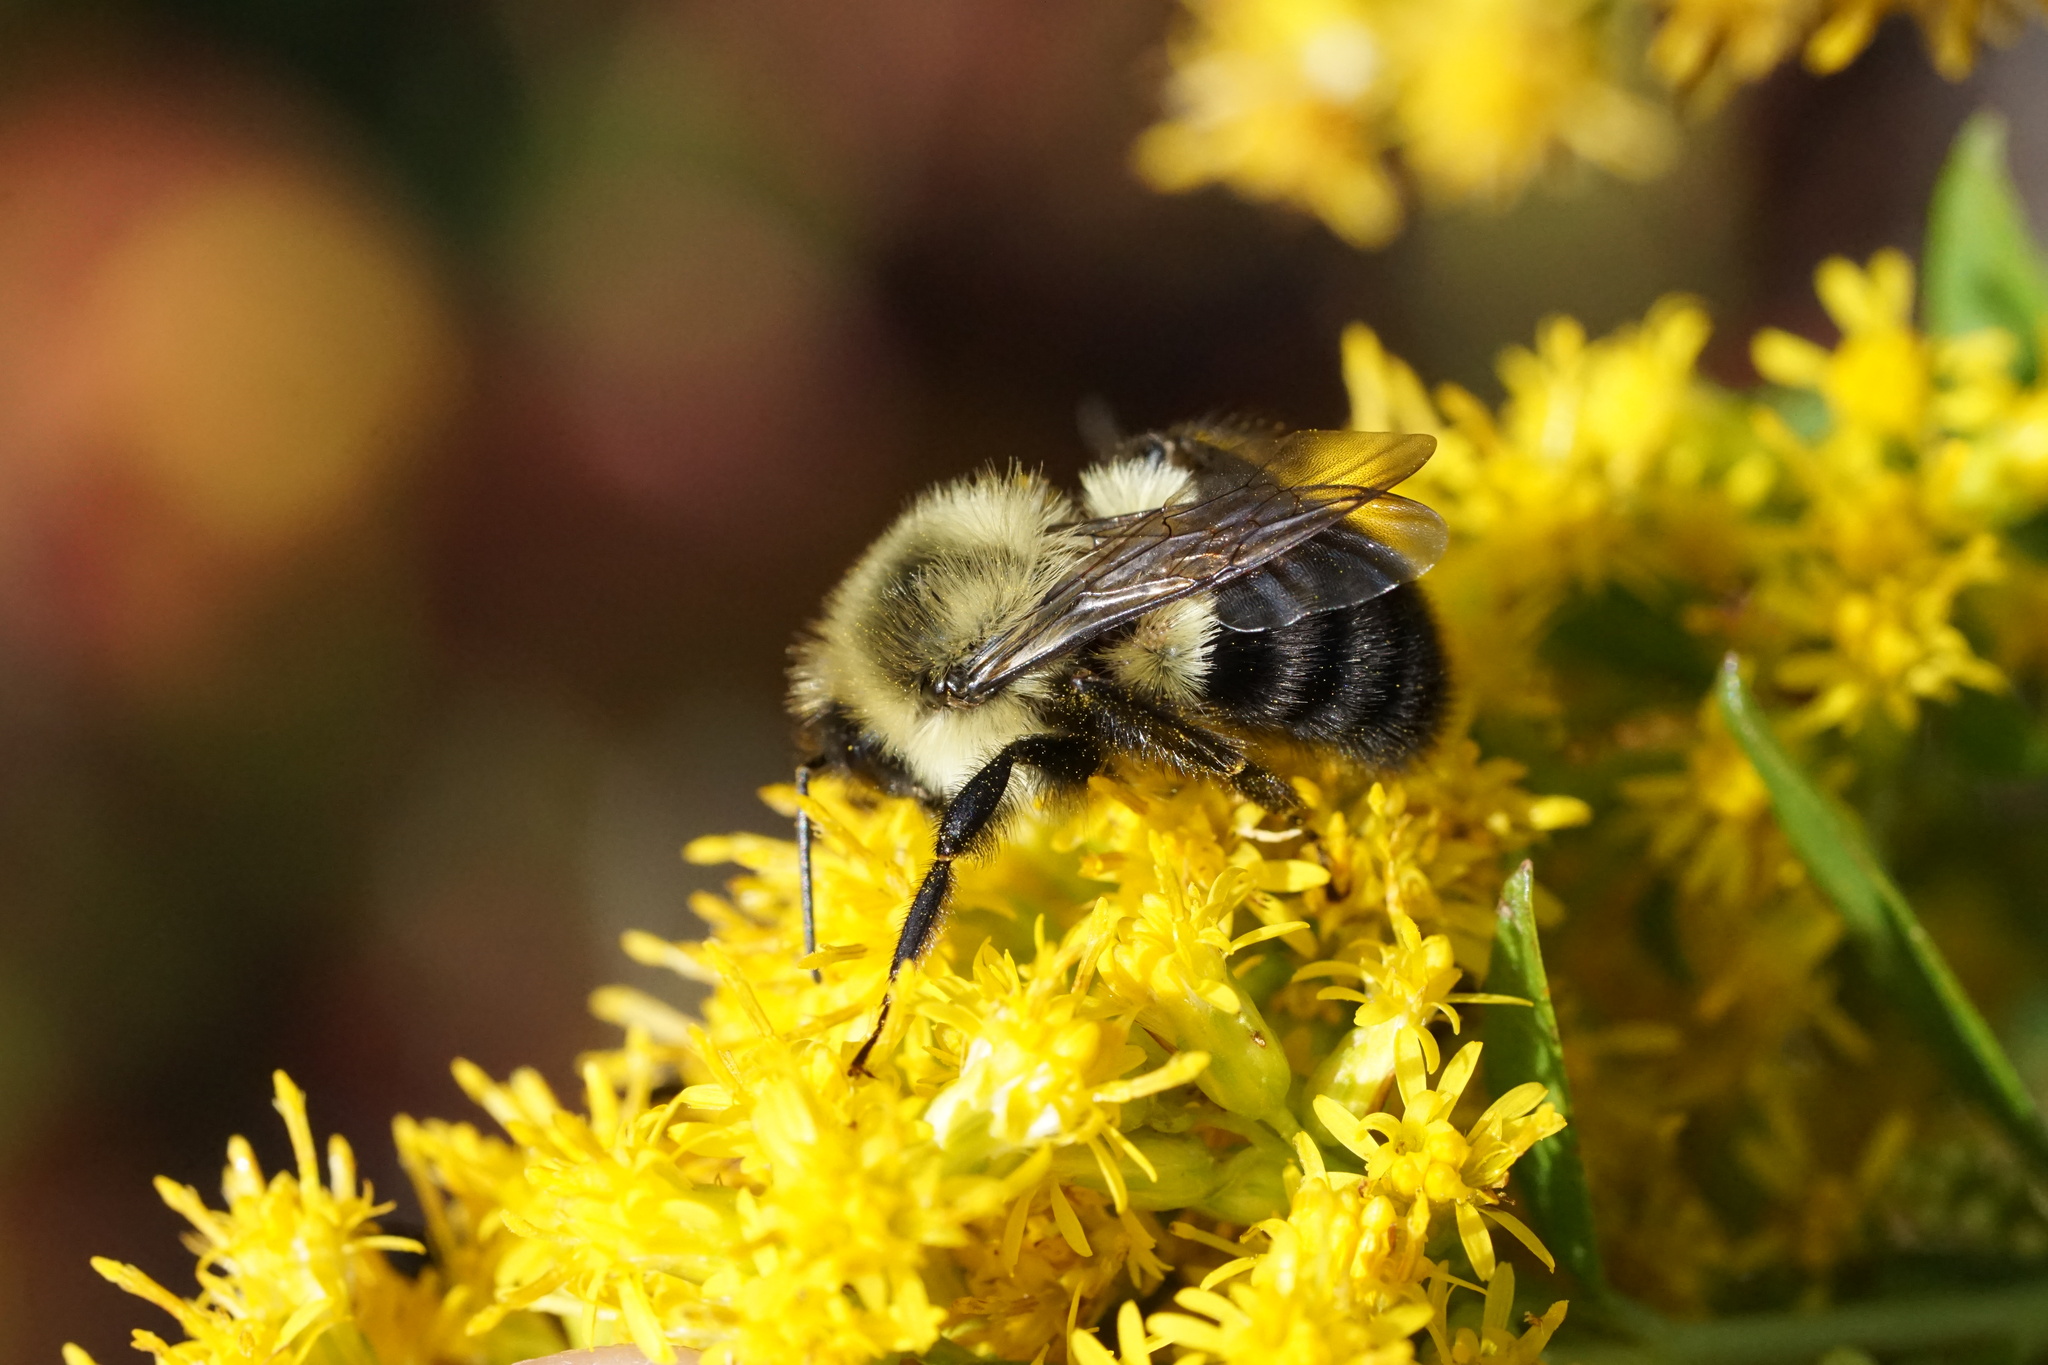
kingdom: Animalia
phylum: Arthropoda
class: Insecta
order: Hymenoptera
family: Apidae
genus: Bombus
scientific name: Bombus impatiens
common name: Common eastern bumble bee
